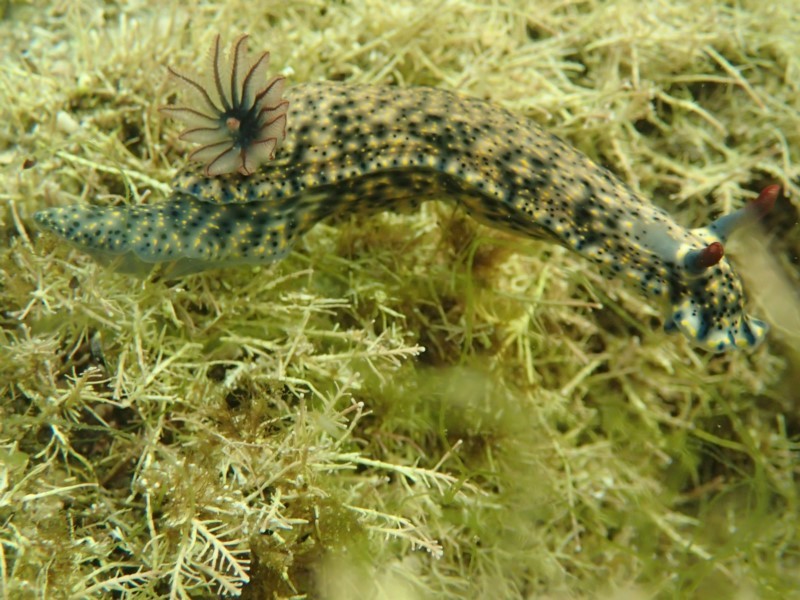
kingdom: Animalia
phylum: Mollusca
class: Gastropoda
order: Nudibranchia
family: Chromodorididae
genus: Hypselodoris
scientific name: Hypselodoris obscura
